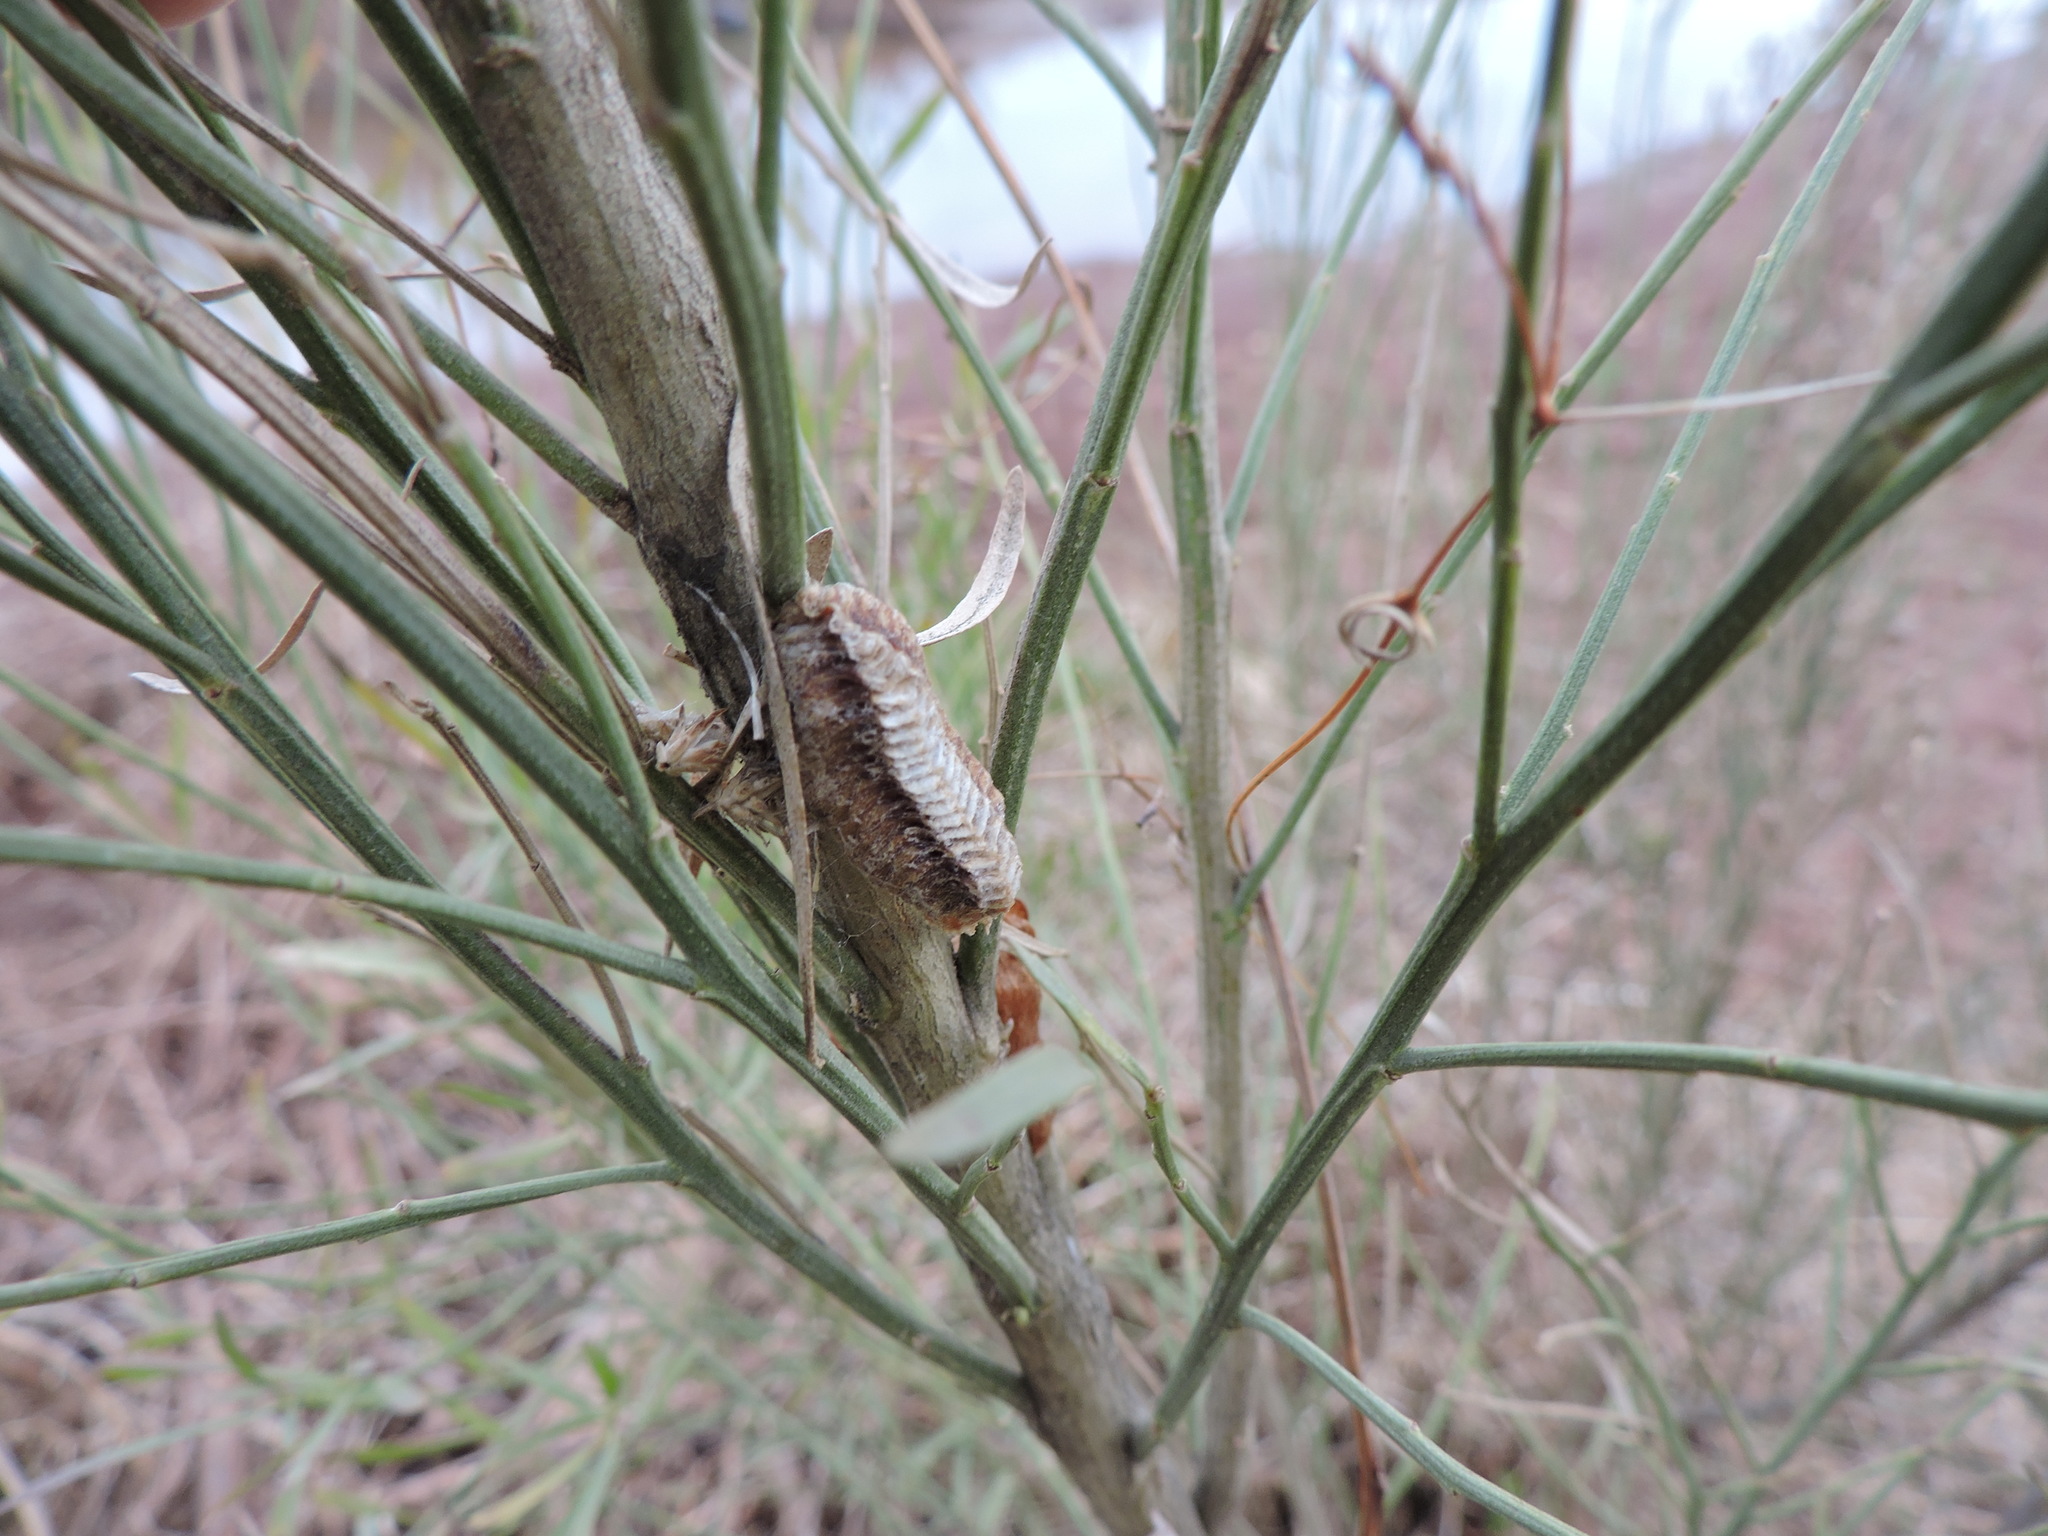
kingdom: Animalia
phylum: Arthropoda
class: Insecta
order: Mantodea
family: Mantidae
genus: Stagmomantis
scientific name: Stagmomantis carolina
